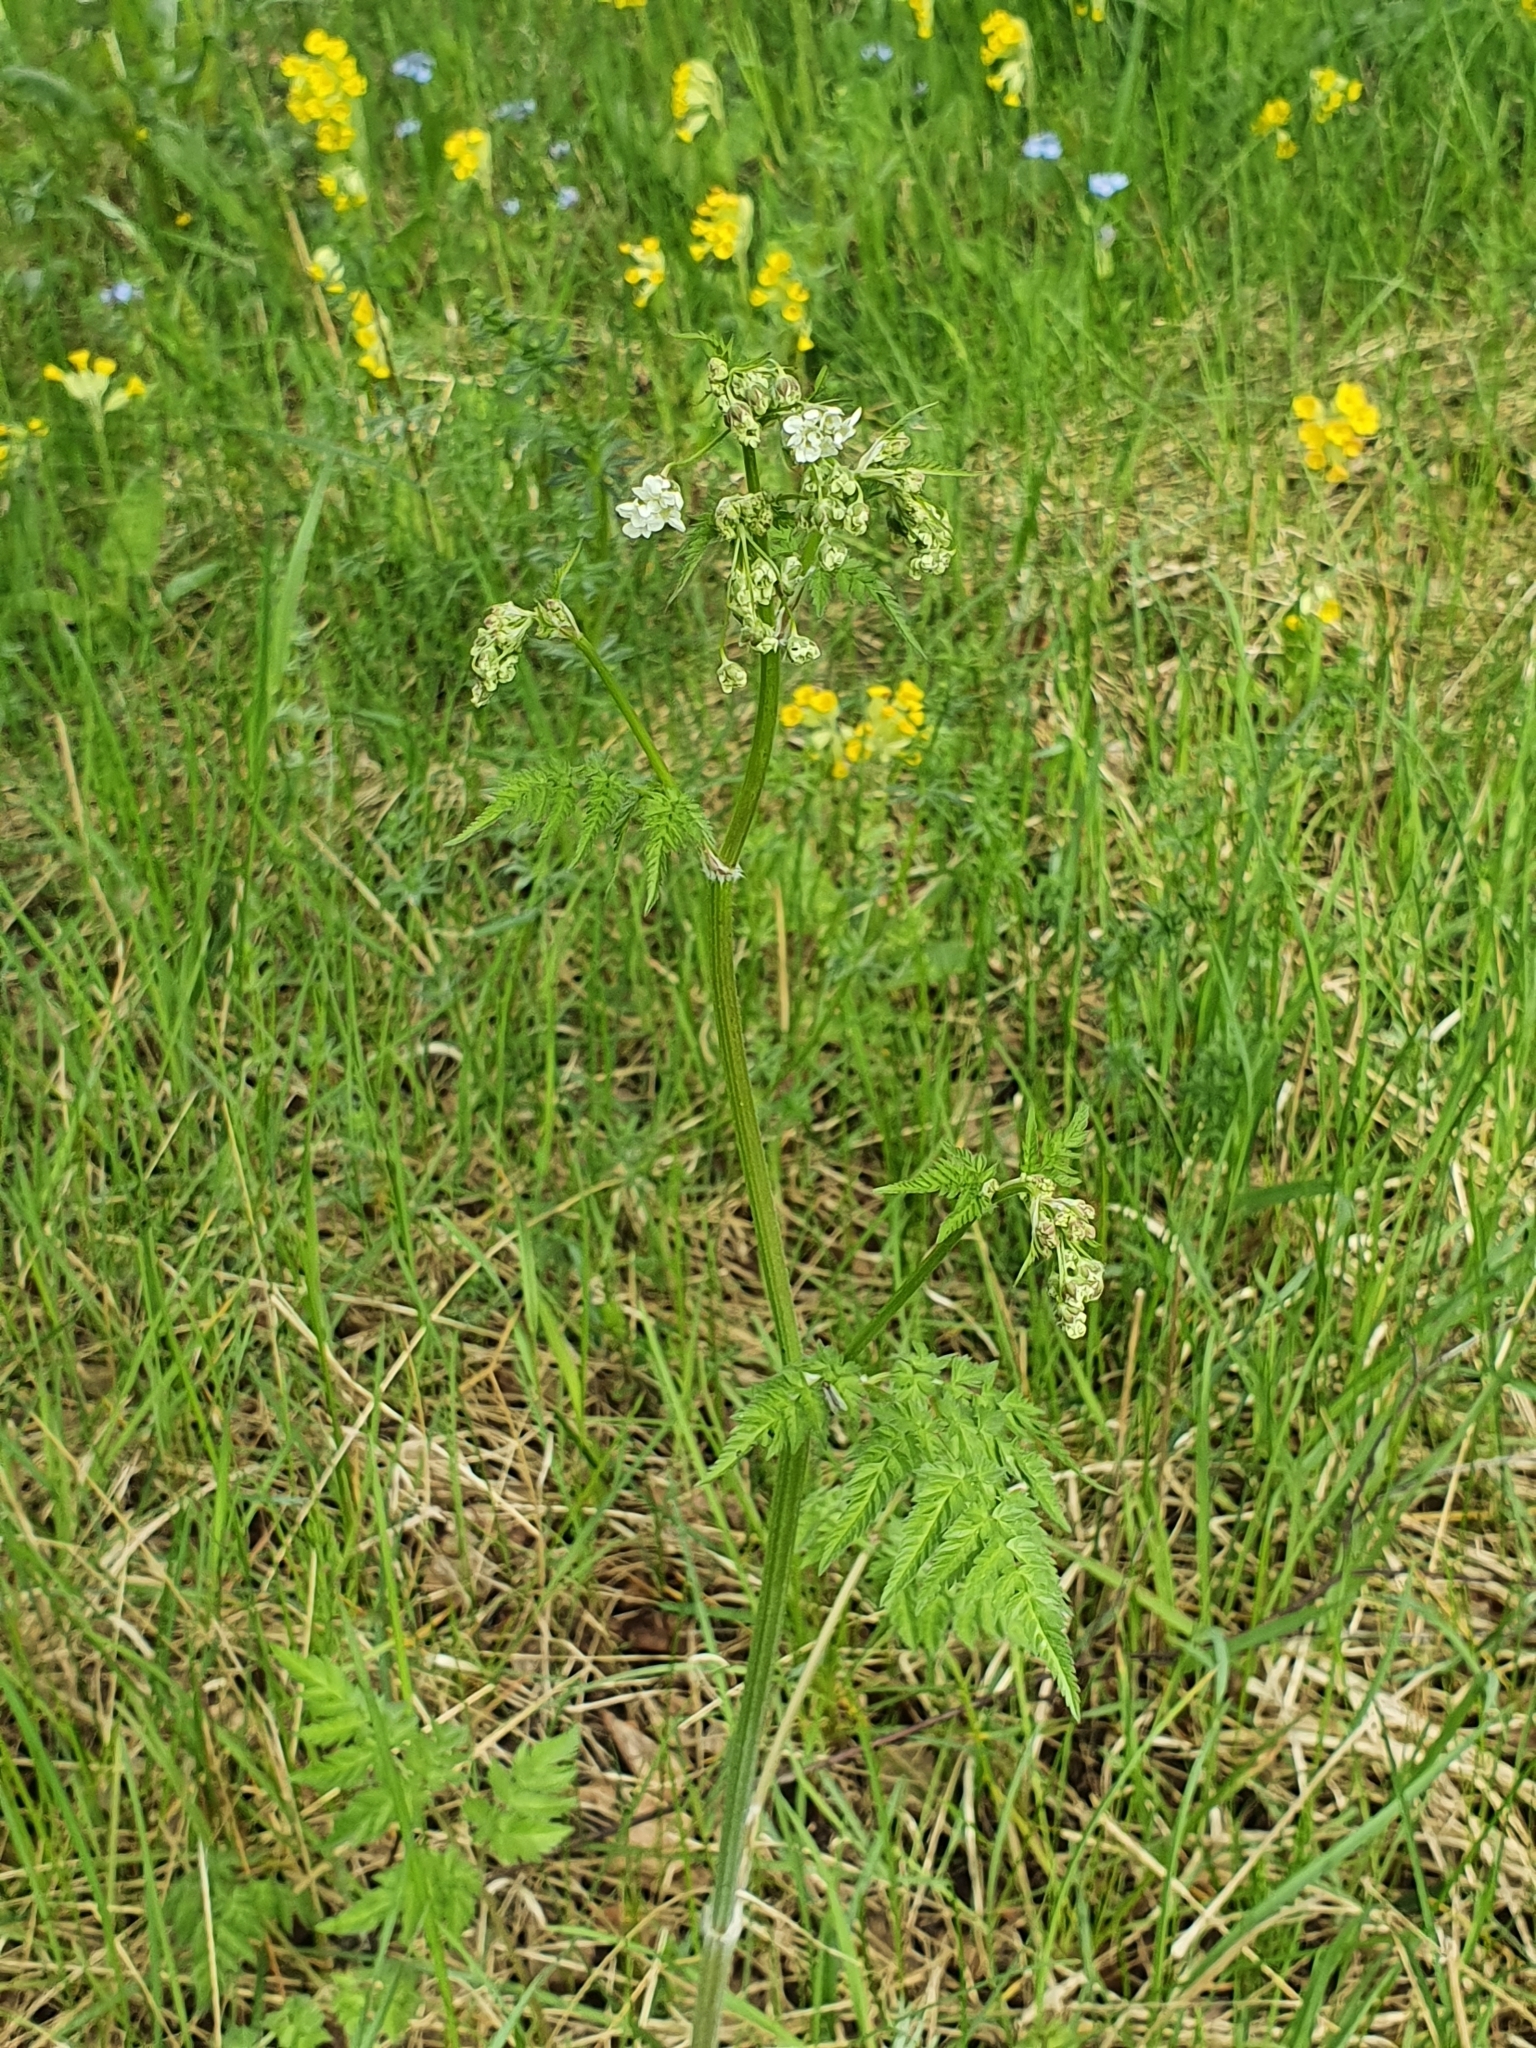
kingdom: Plantae
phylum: Tracheophyta
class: Magnoliopsida
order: Apiales
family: Apiaceae
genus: Anthriscus
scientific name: Anthriscus sylvestris
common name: Cow parsley
